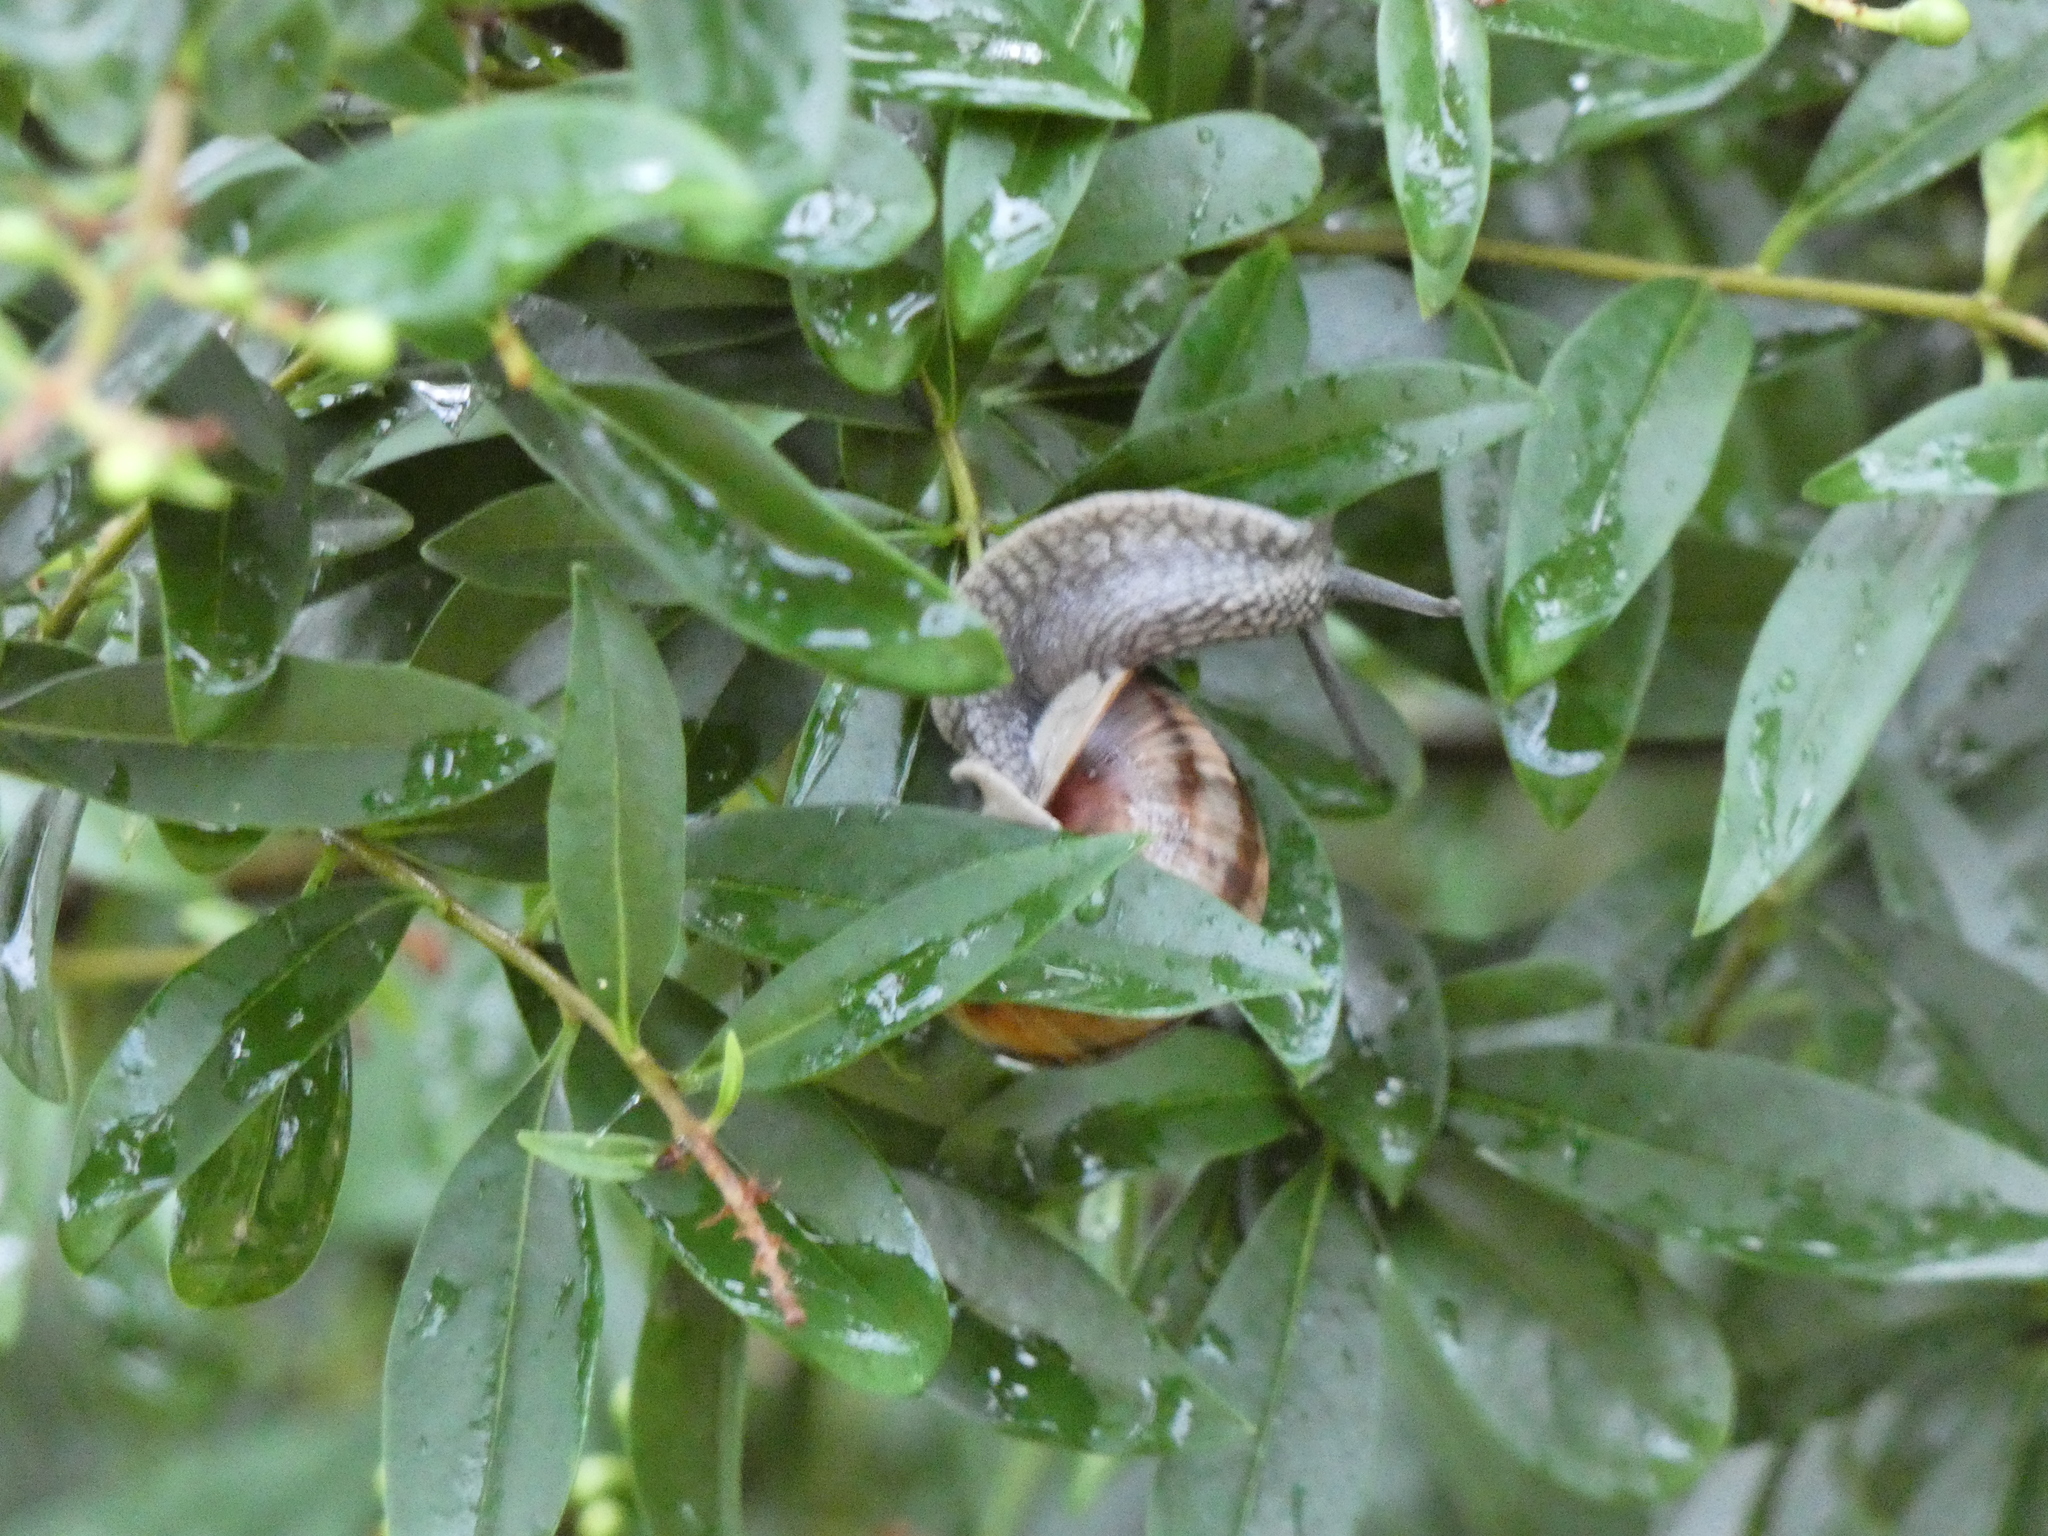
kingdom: Animalia
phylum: Mollusca
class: Gastropoda
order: Stylommatophora
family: Helicidae
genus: Helix
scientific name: Helix pomatia
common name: Roman snail
